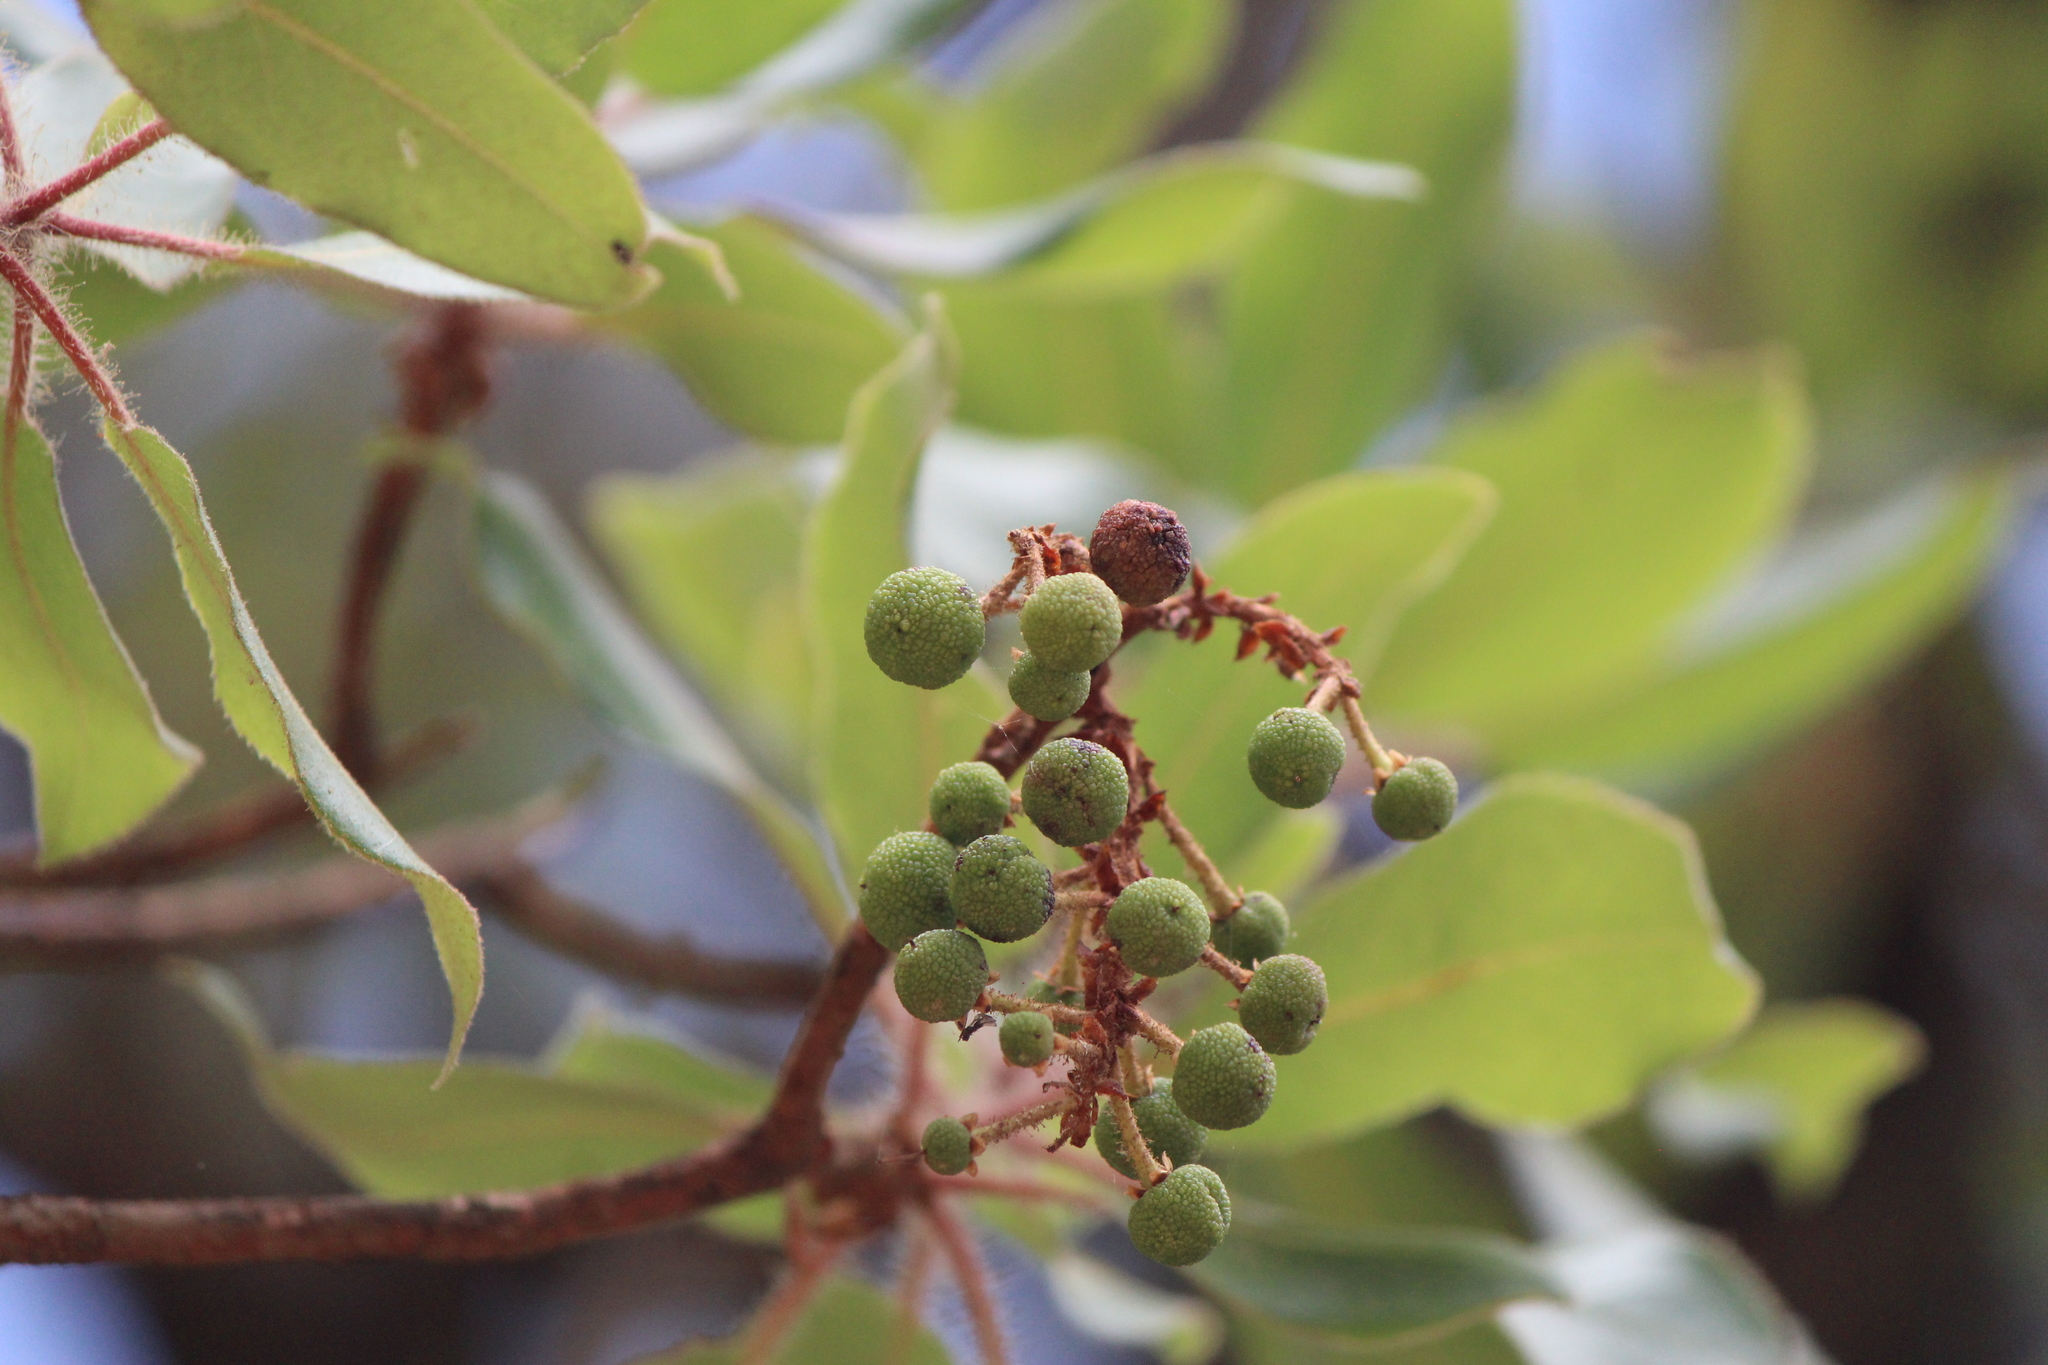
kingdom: Plantae
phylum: Tracheophyta
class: Magnoliopsida
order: Ericales
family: Ericaceae
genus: Arbutus
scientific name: Arbutus tessellata
